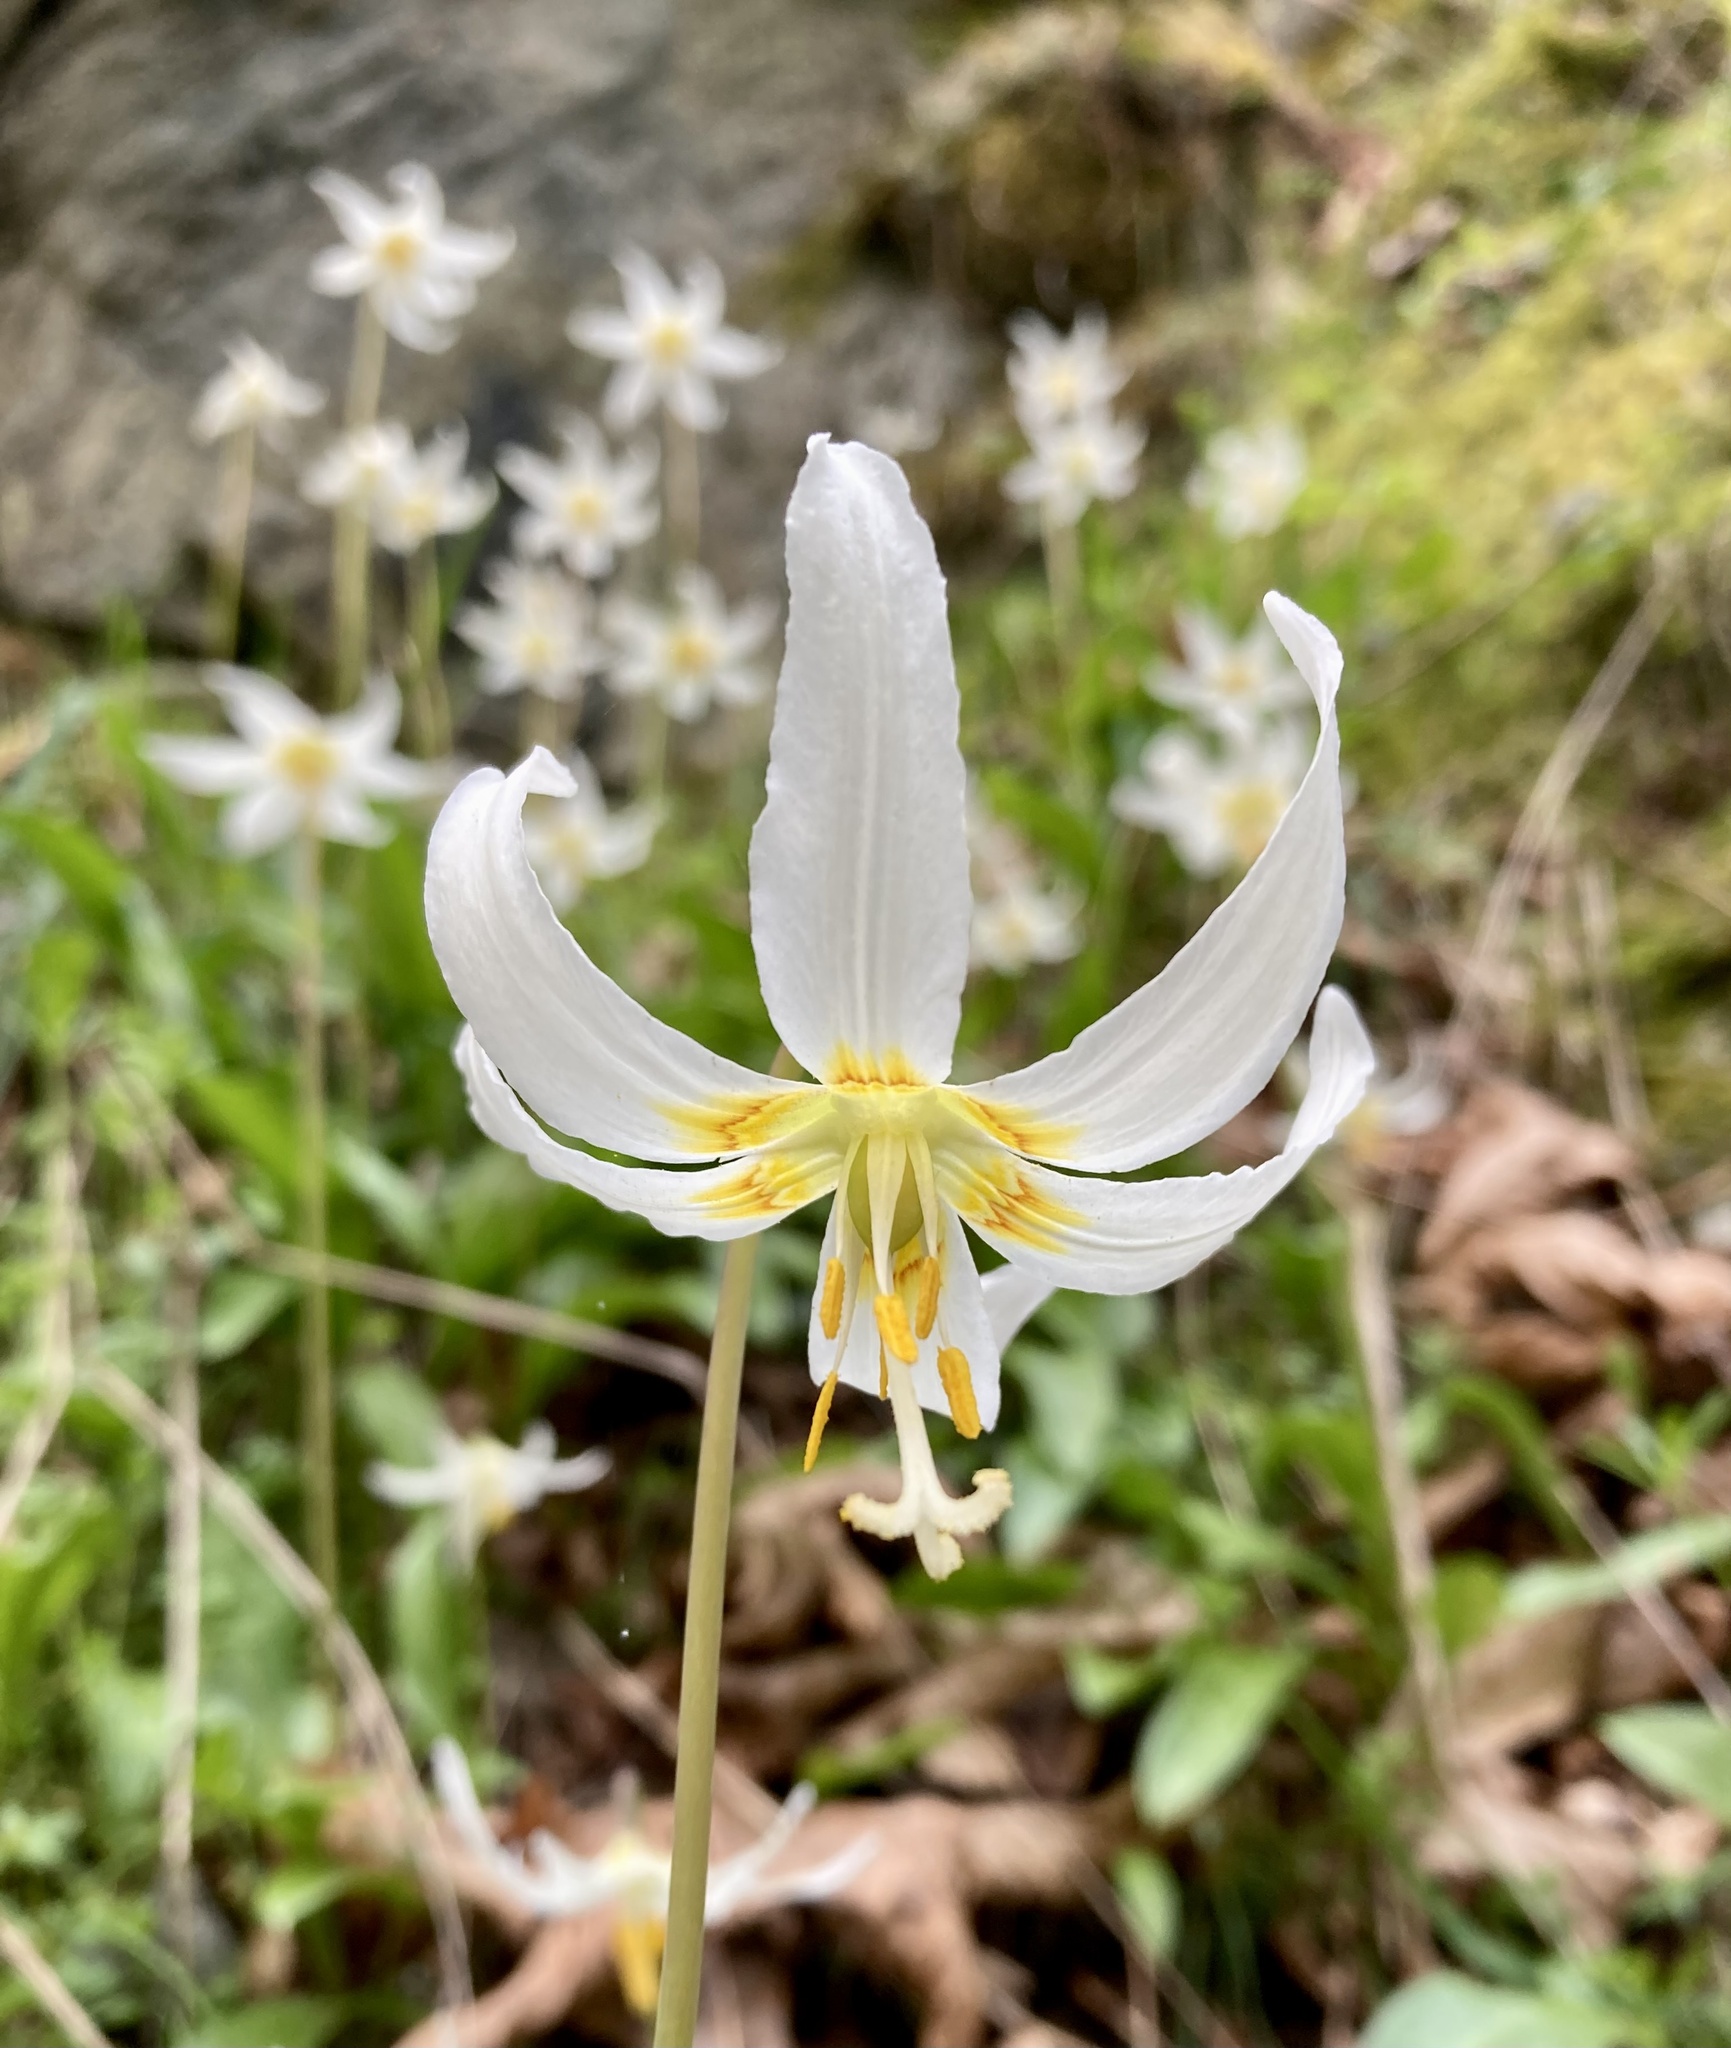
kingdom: Plantae
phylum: Tracheophyta
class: Liliopsida
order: Liliales
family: Liliaceae
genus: Erythronium
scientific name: Erythronium oregonum
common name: Giant adder's-tongue
